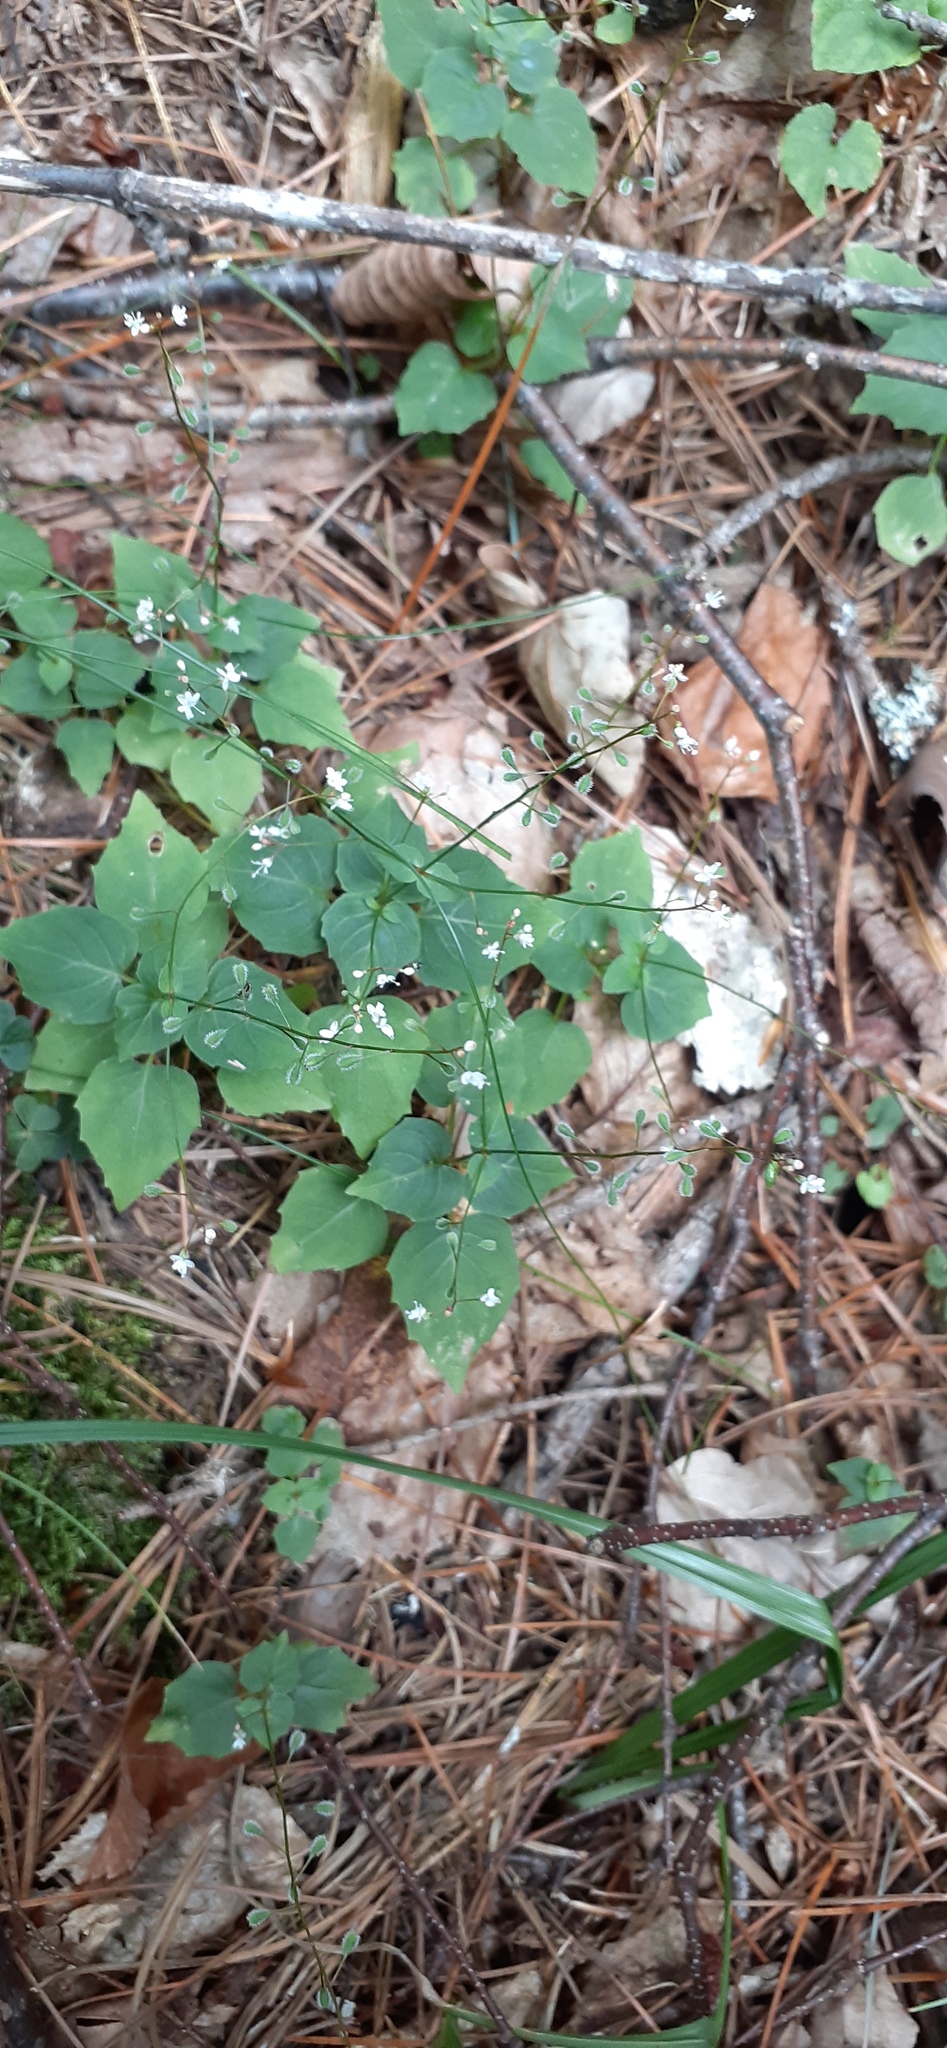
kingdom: Plantae
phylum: Tracheophyta
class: Magnoliopsida
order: Myrtales
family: Onagraceae
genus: Circaea
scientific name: Circaea alpina
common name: Alpine enchanter's-nightshade
